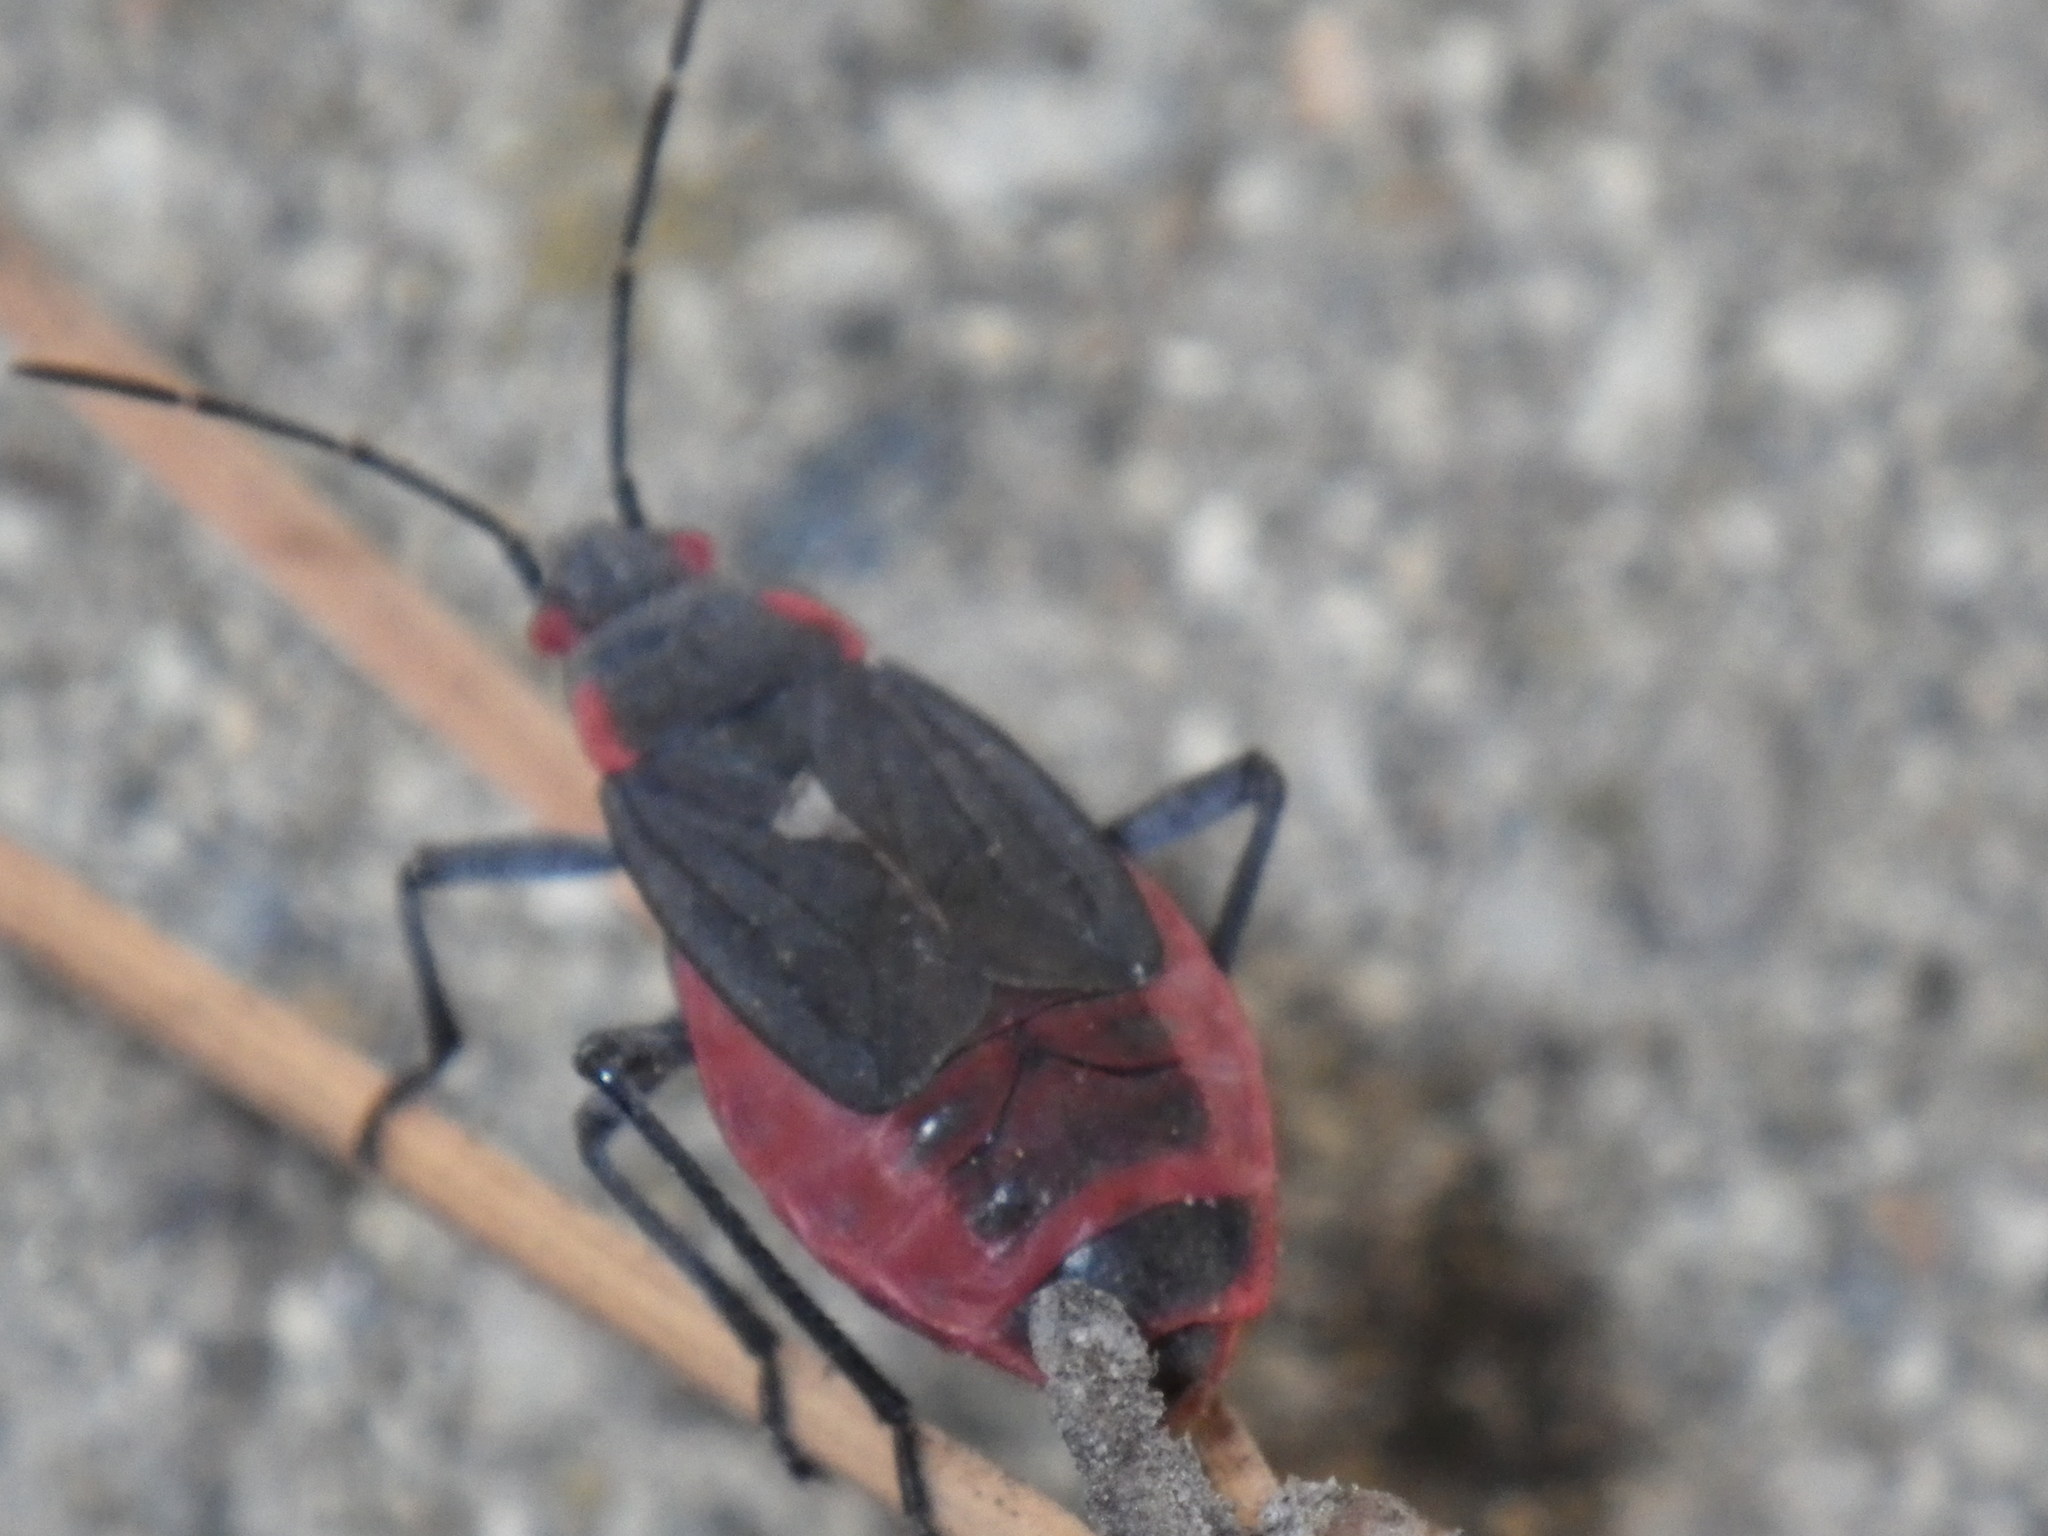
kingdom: Animalia
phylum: Arthropoda
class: Insecta
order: Hemiptera
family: Rhopalidae
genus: Jadera
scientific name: Jadera haematoloma
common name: Red-shouldered bug
